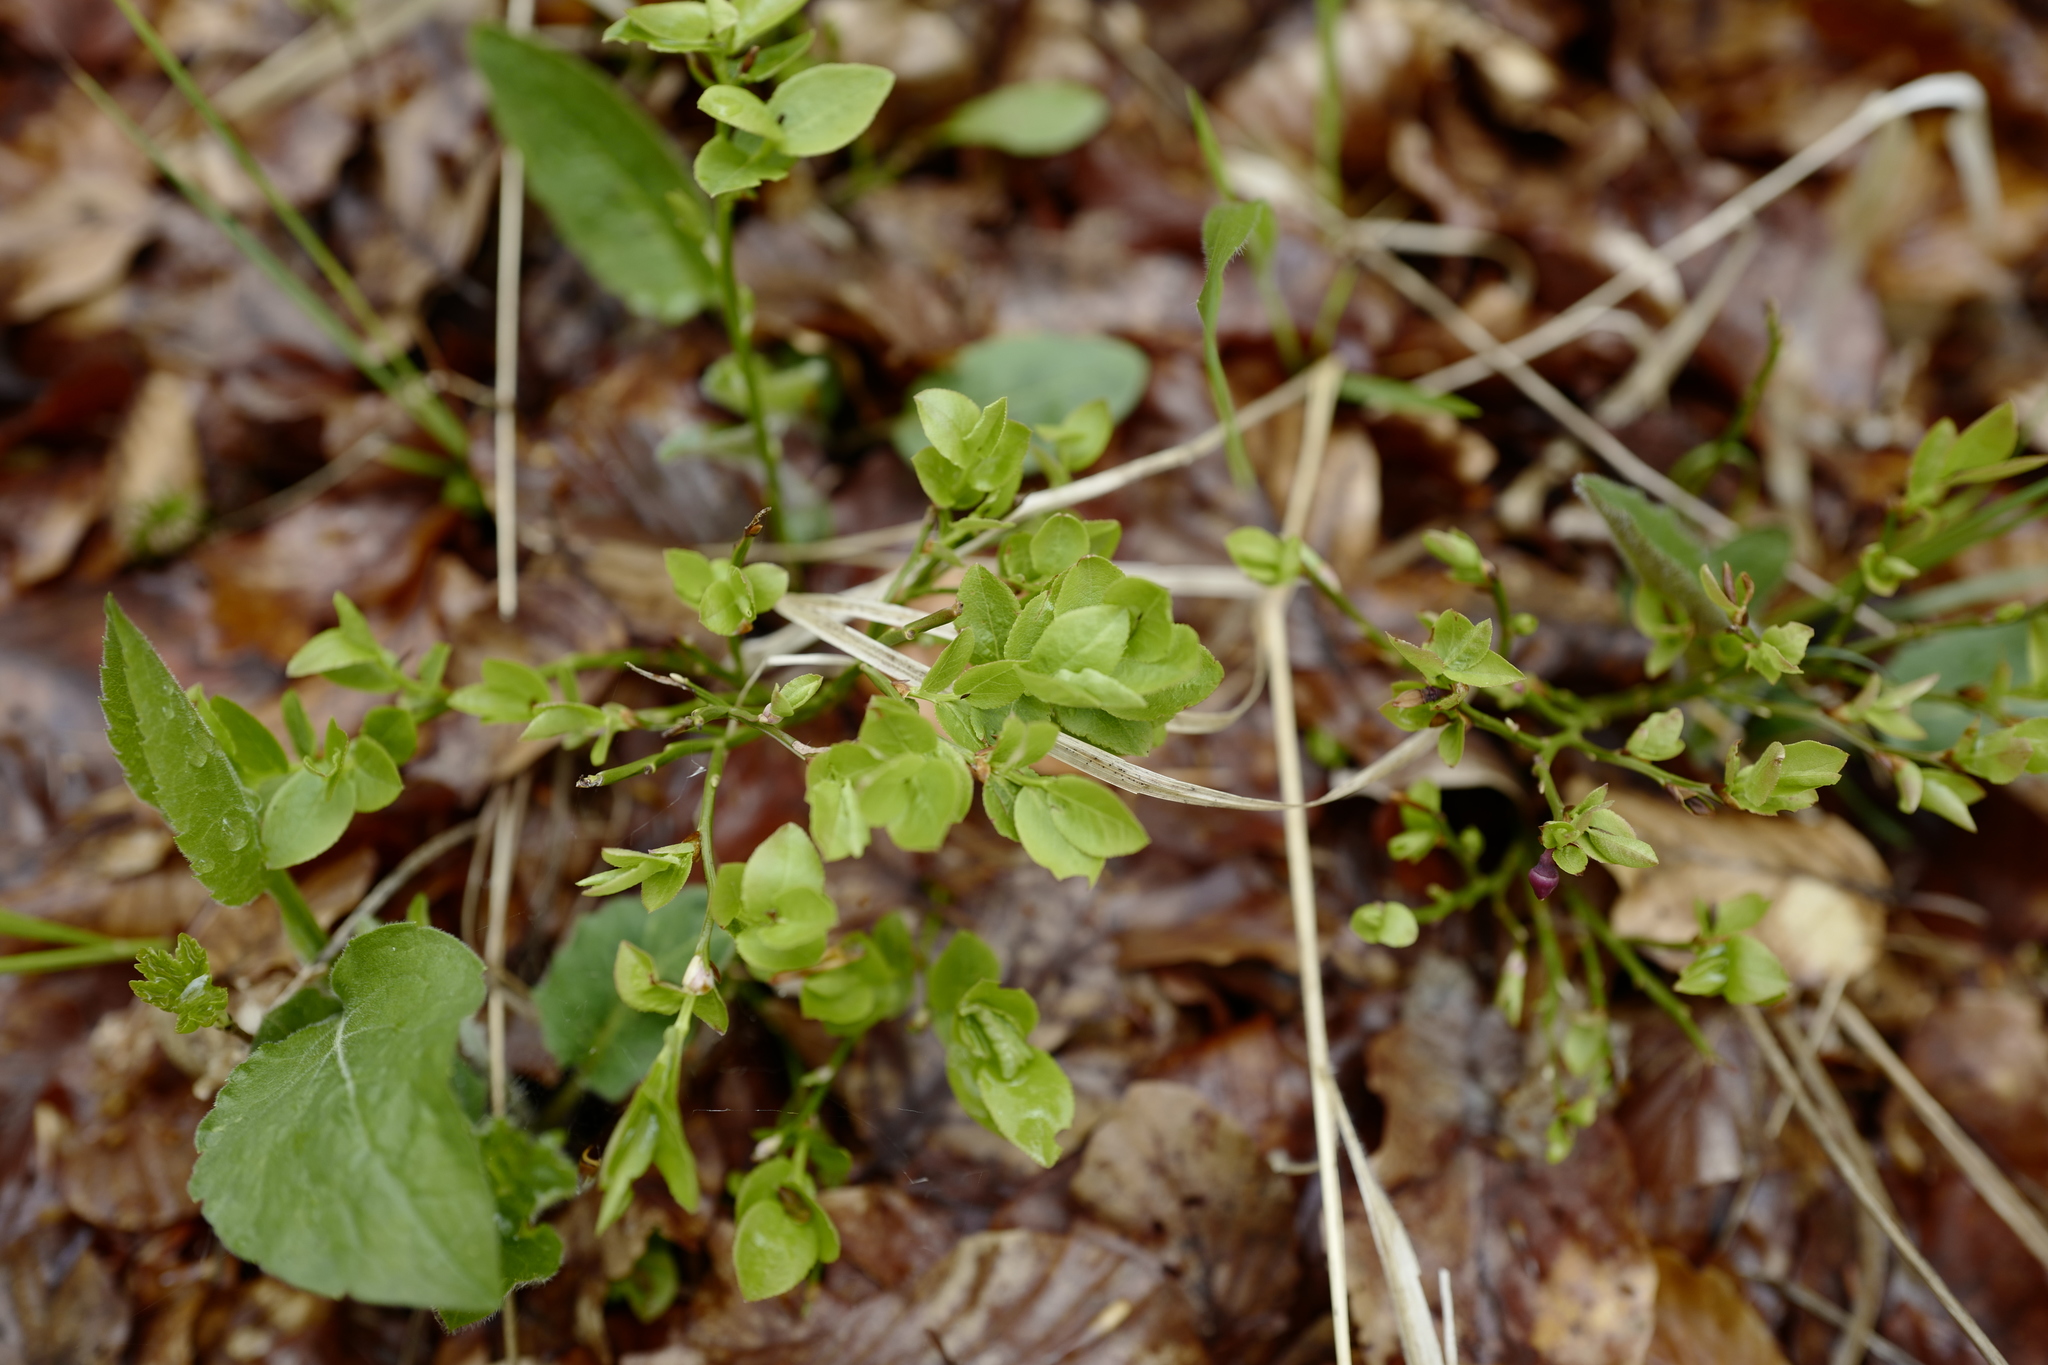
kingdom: Plantae
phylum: Tracheophyta
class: Magnoliopsida
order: Ericales
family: Ericaceae
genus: Vaccinium
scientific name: Vaccinium myrtillus
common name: Bilberry
